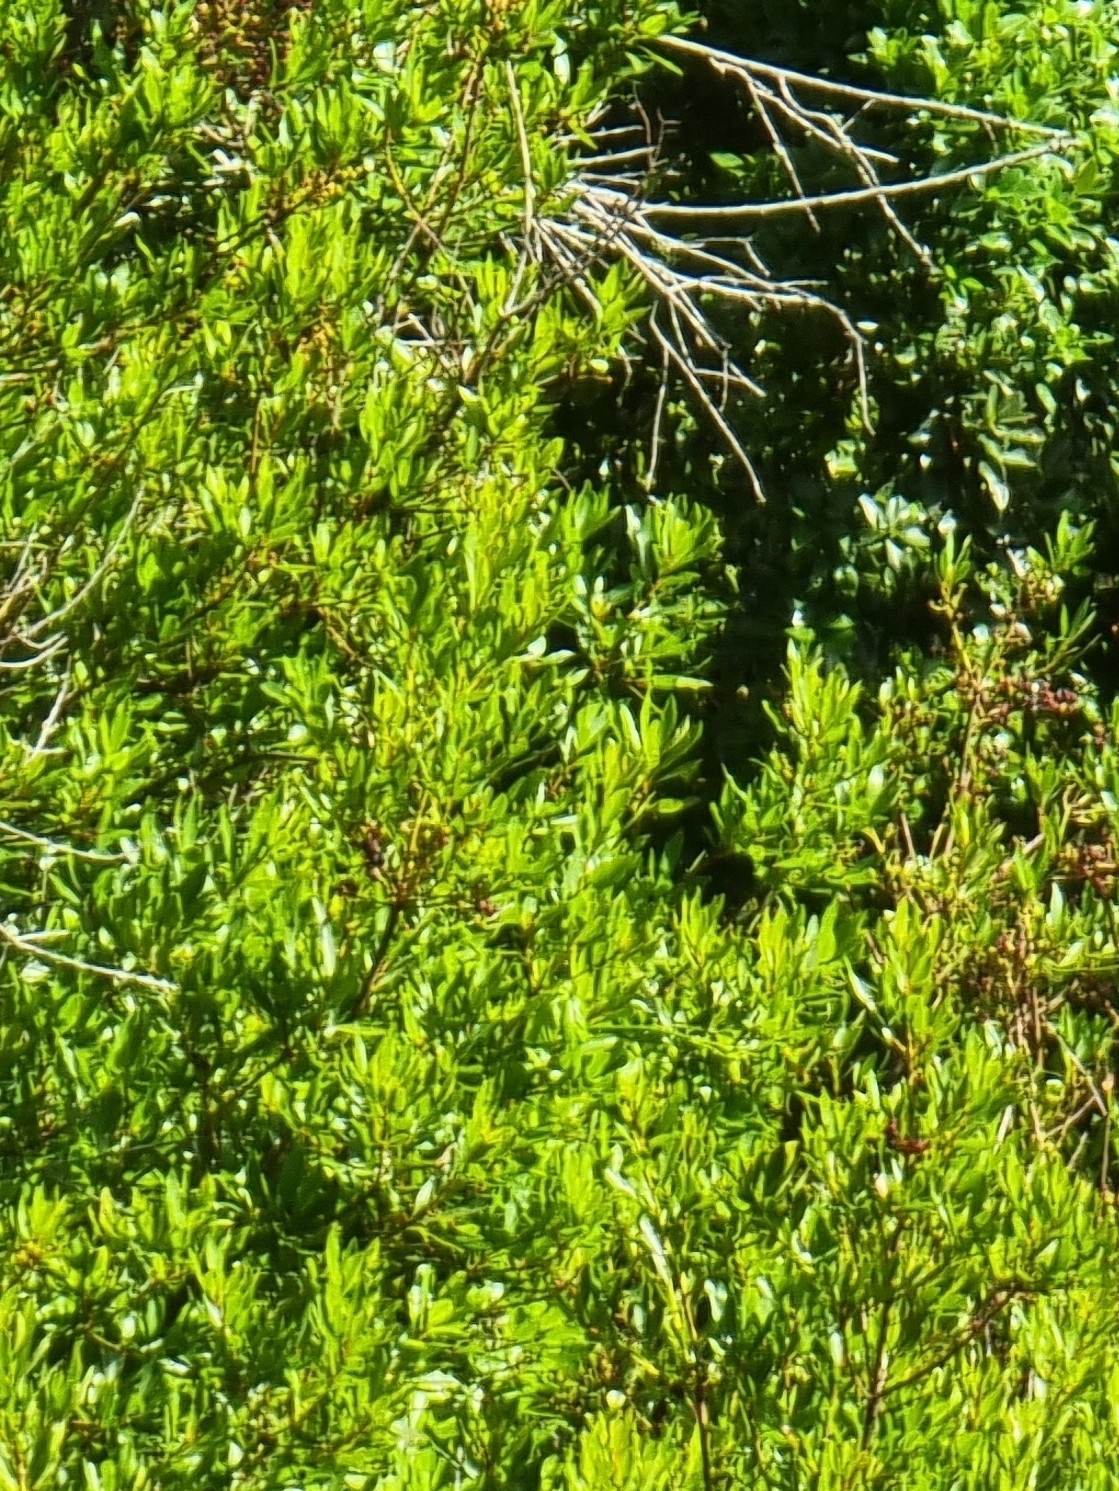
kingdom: Plantae
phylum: Tracheophyta
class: Magnoliopsida
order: Fagales
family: Myricaceae
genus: Morella
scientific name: Morella faya
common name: Firetree
